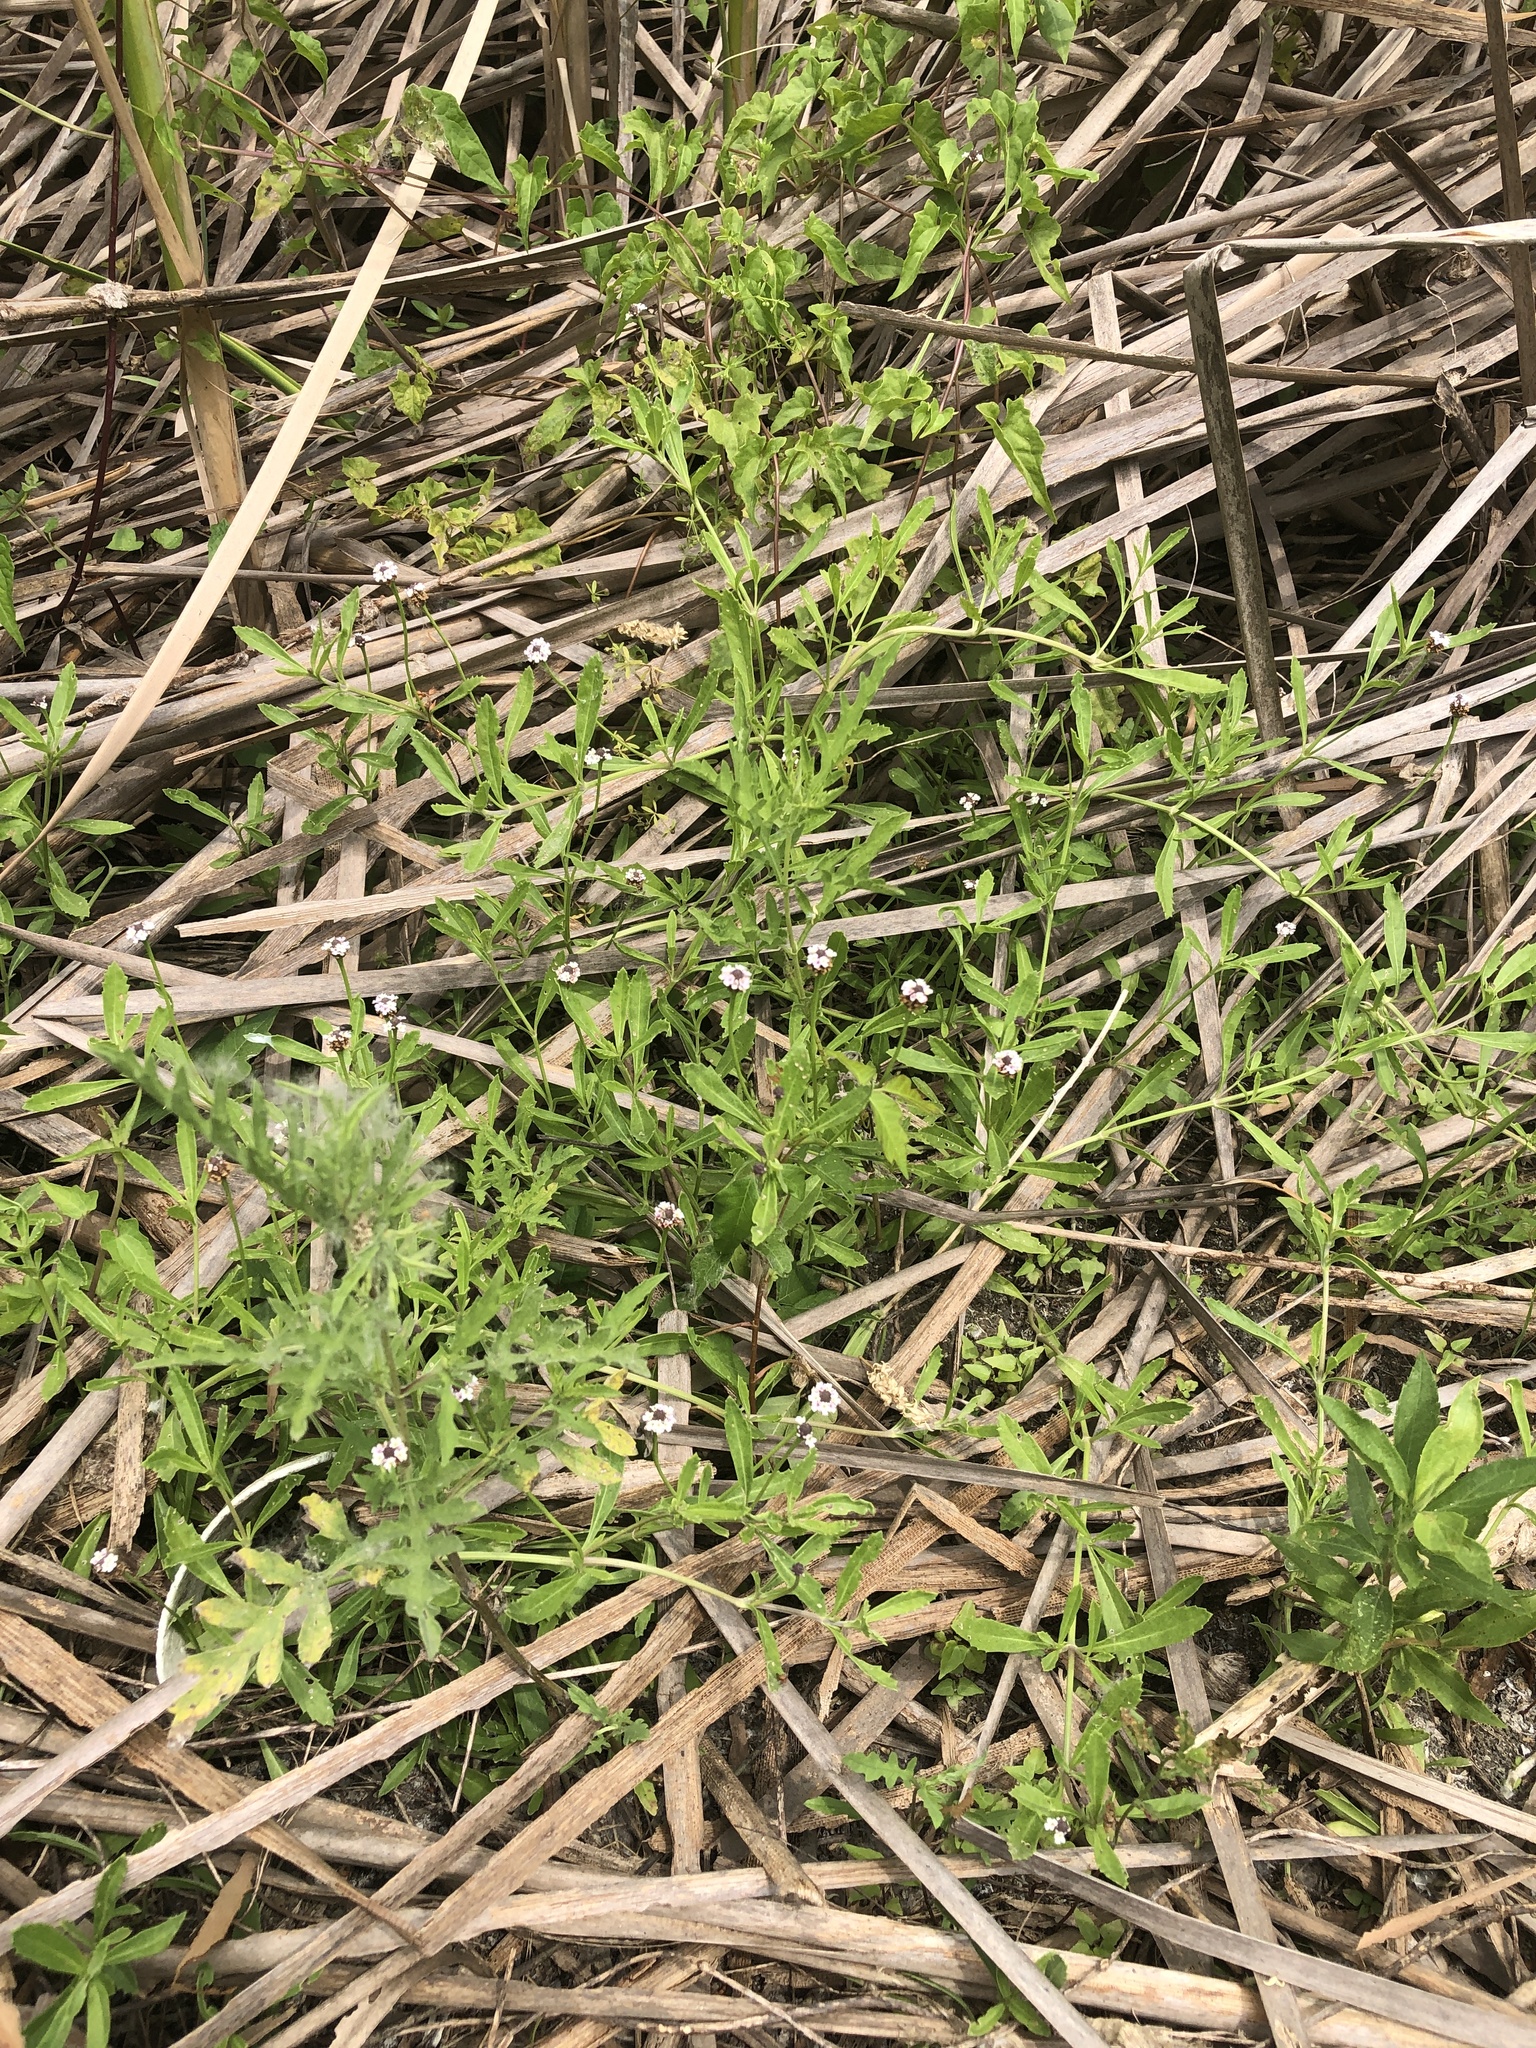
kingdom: Plantae
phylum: Tracheophyta
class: Magnoliopsida
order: Lamiales
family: Verbenaceae
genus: Phyla
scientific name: Phyla nodiflora
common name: Frogfruit
